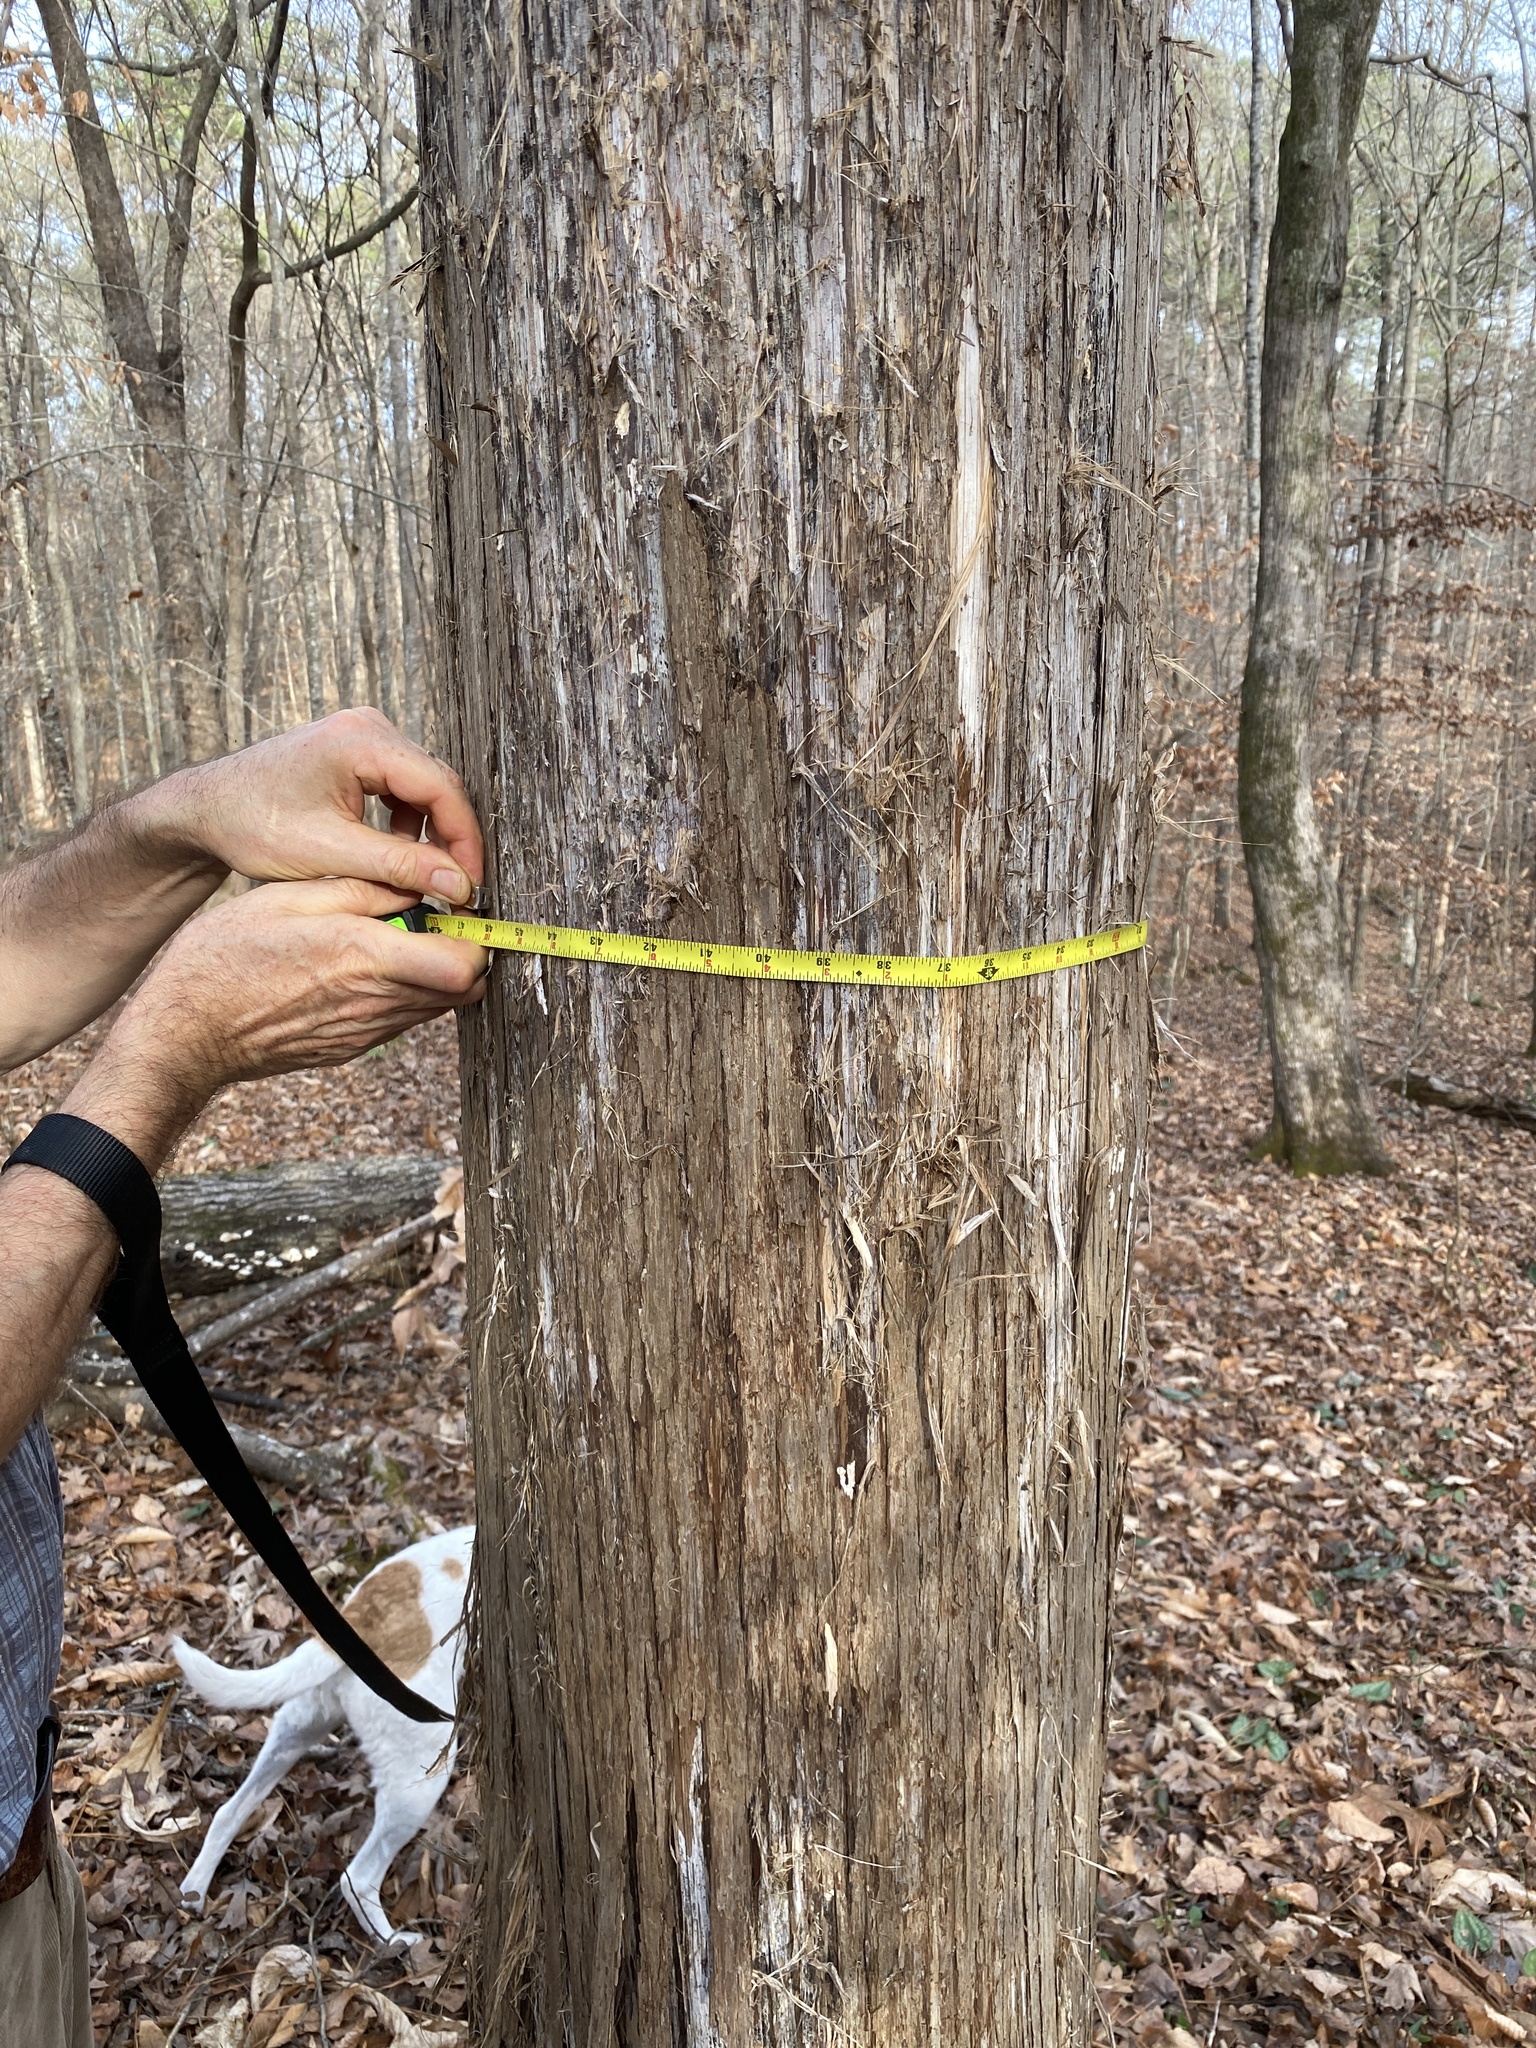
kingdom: Plantae
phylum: Tracheophyta
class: Pinopsida
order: Pinales
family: Cupressaceae
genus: Juniperus
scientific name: Juniperus virginiana
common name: Red juniper
